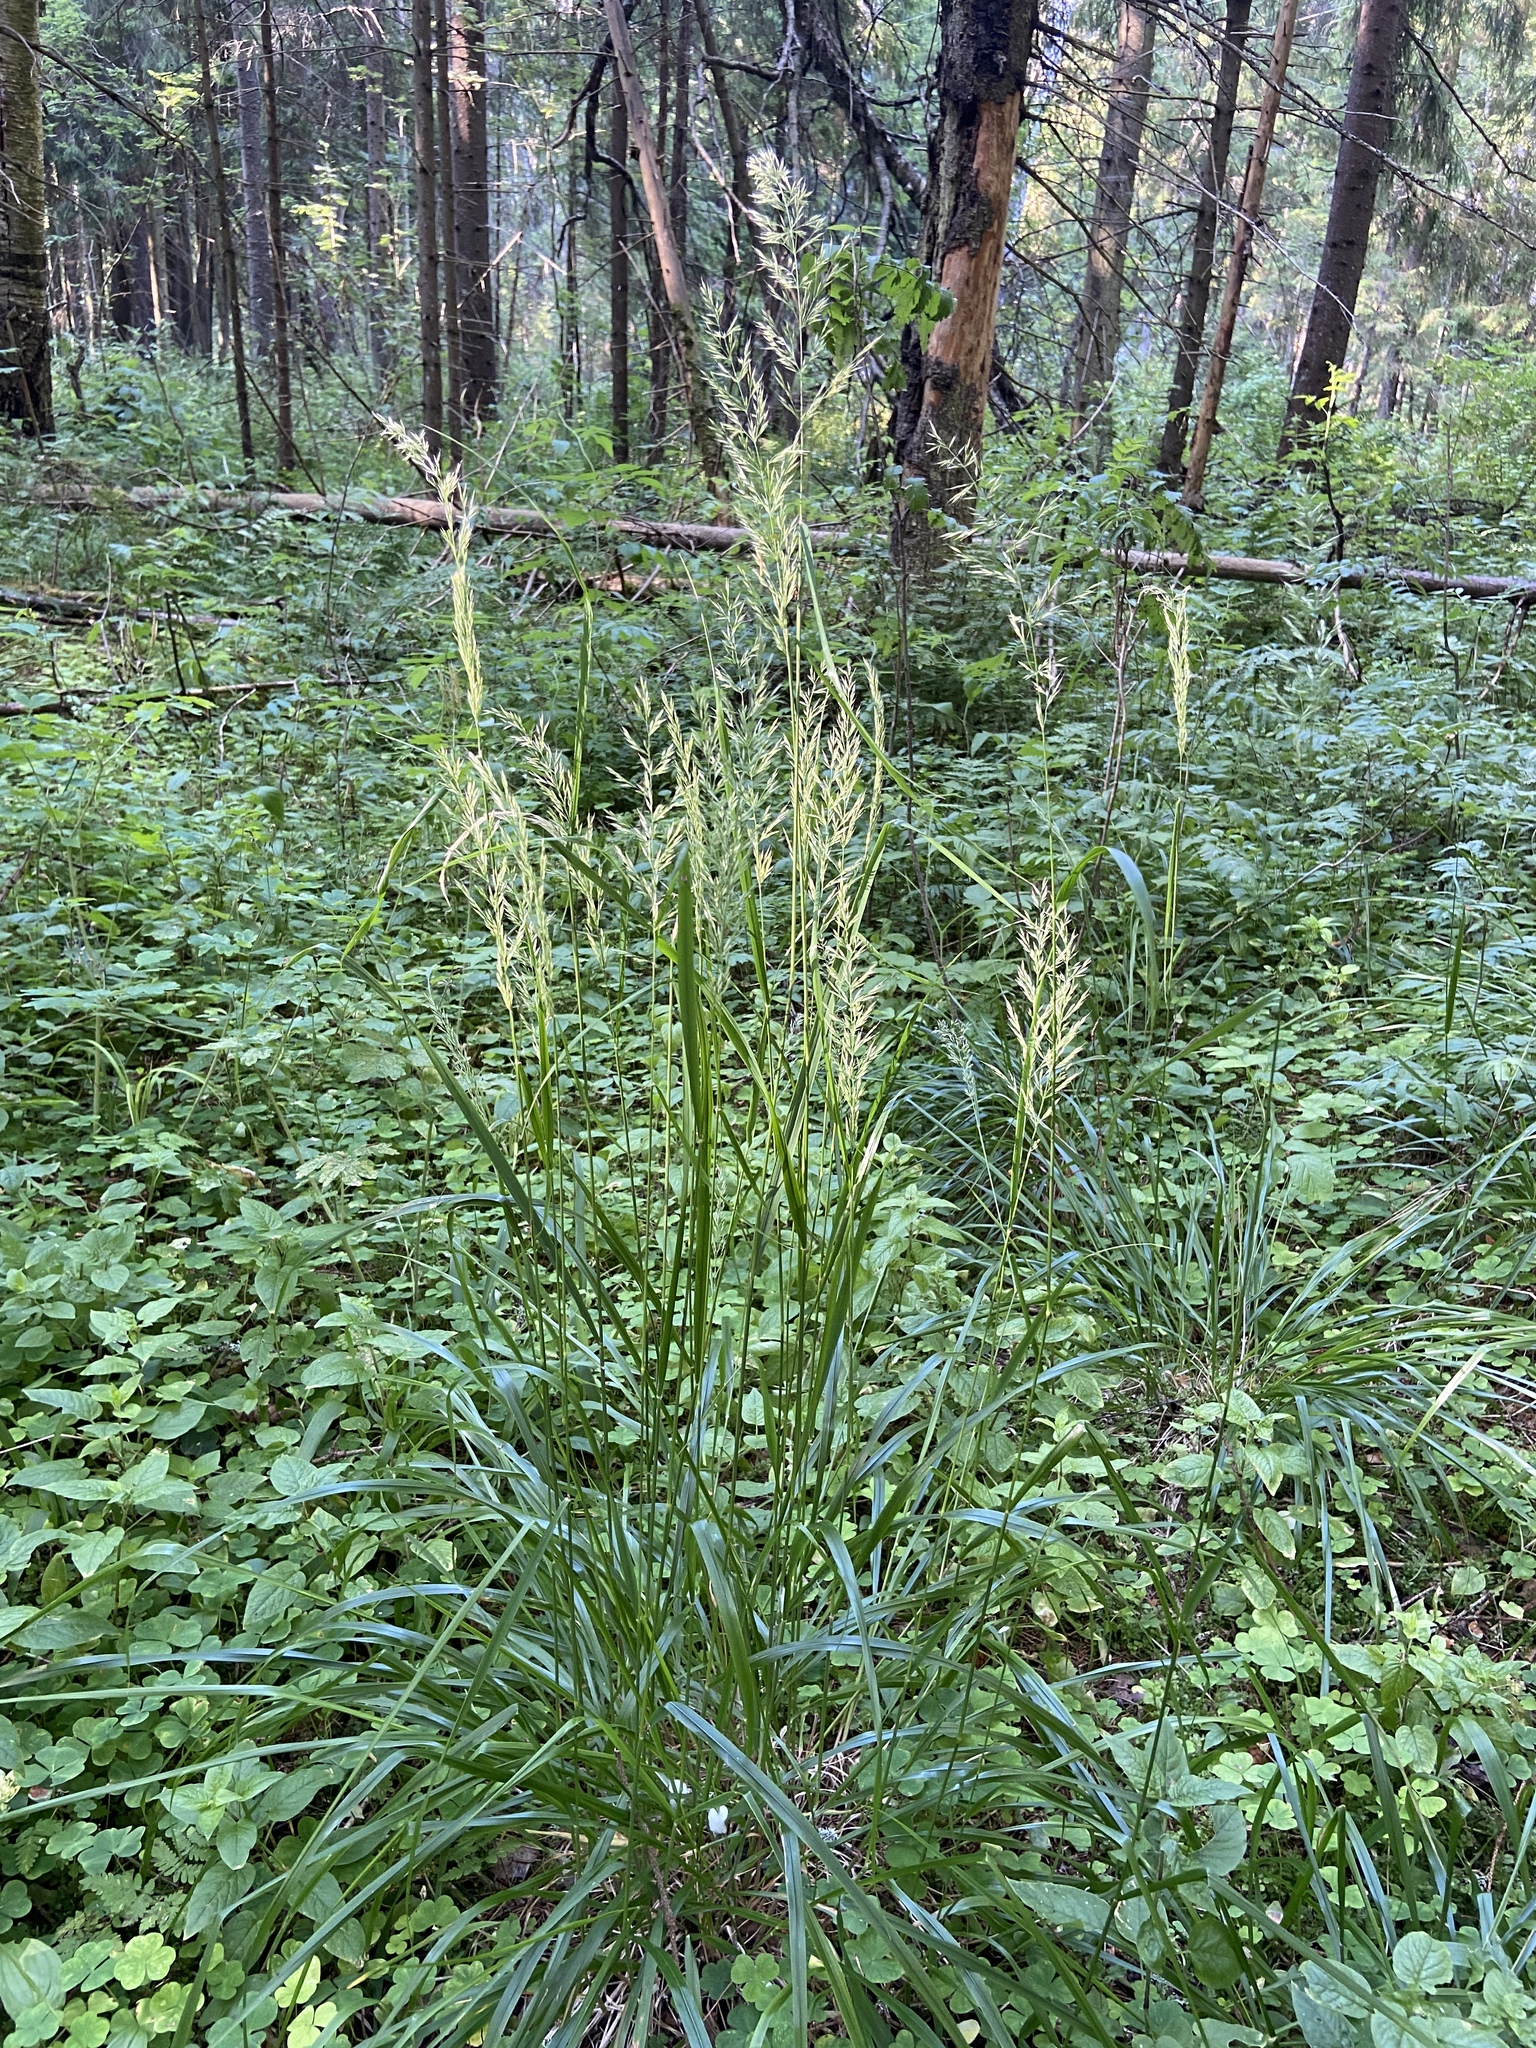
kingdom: Plantae
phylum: Tracheophyta
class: Liliopsida
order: Poales
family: Poaceae
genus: Calamagrostis
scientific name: Calamagrostis arundinacea
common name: Metskastik
